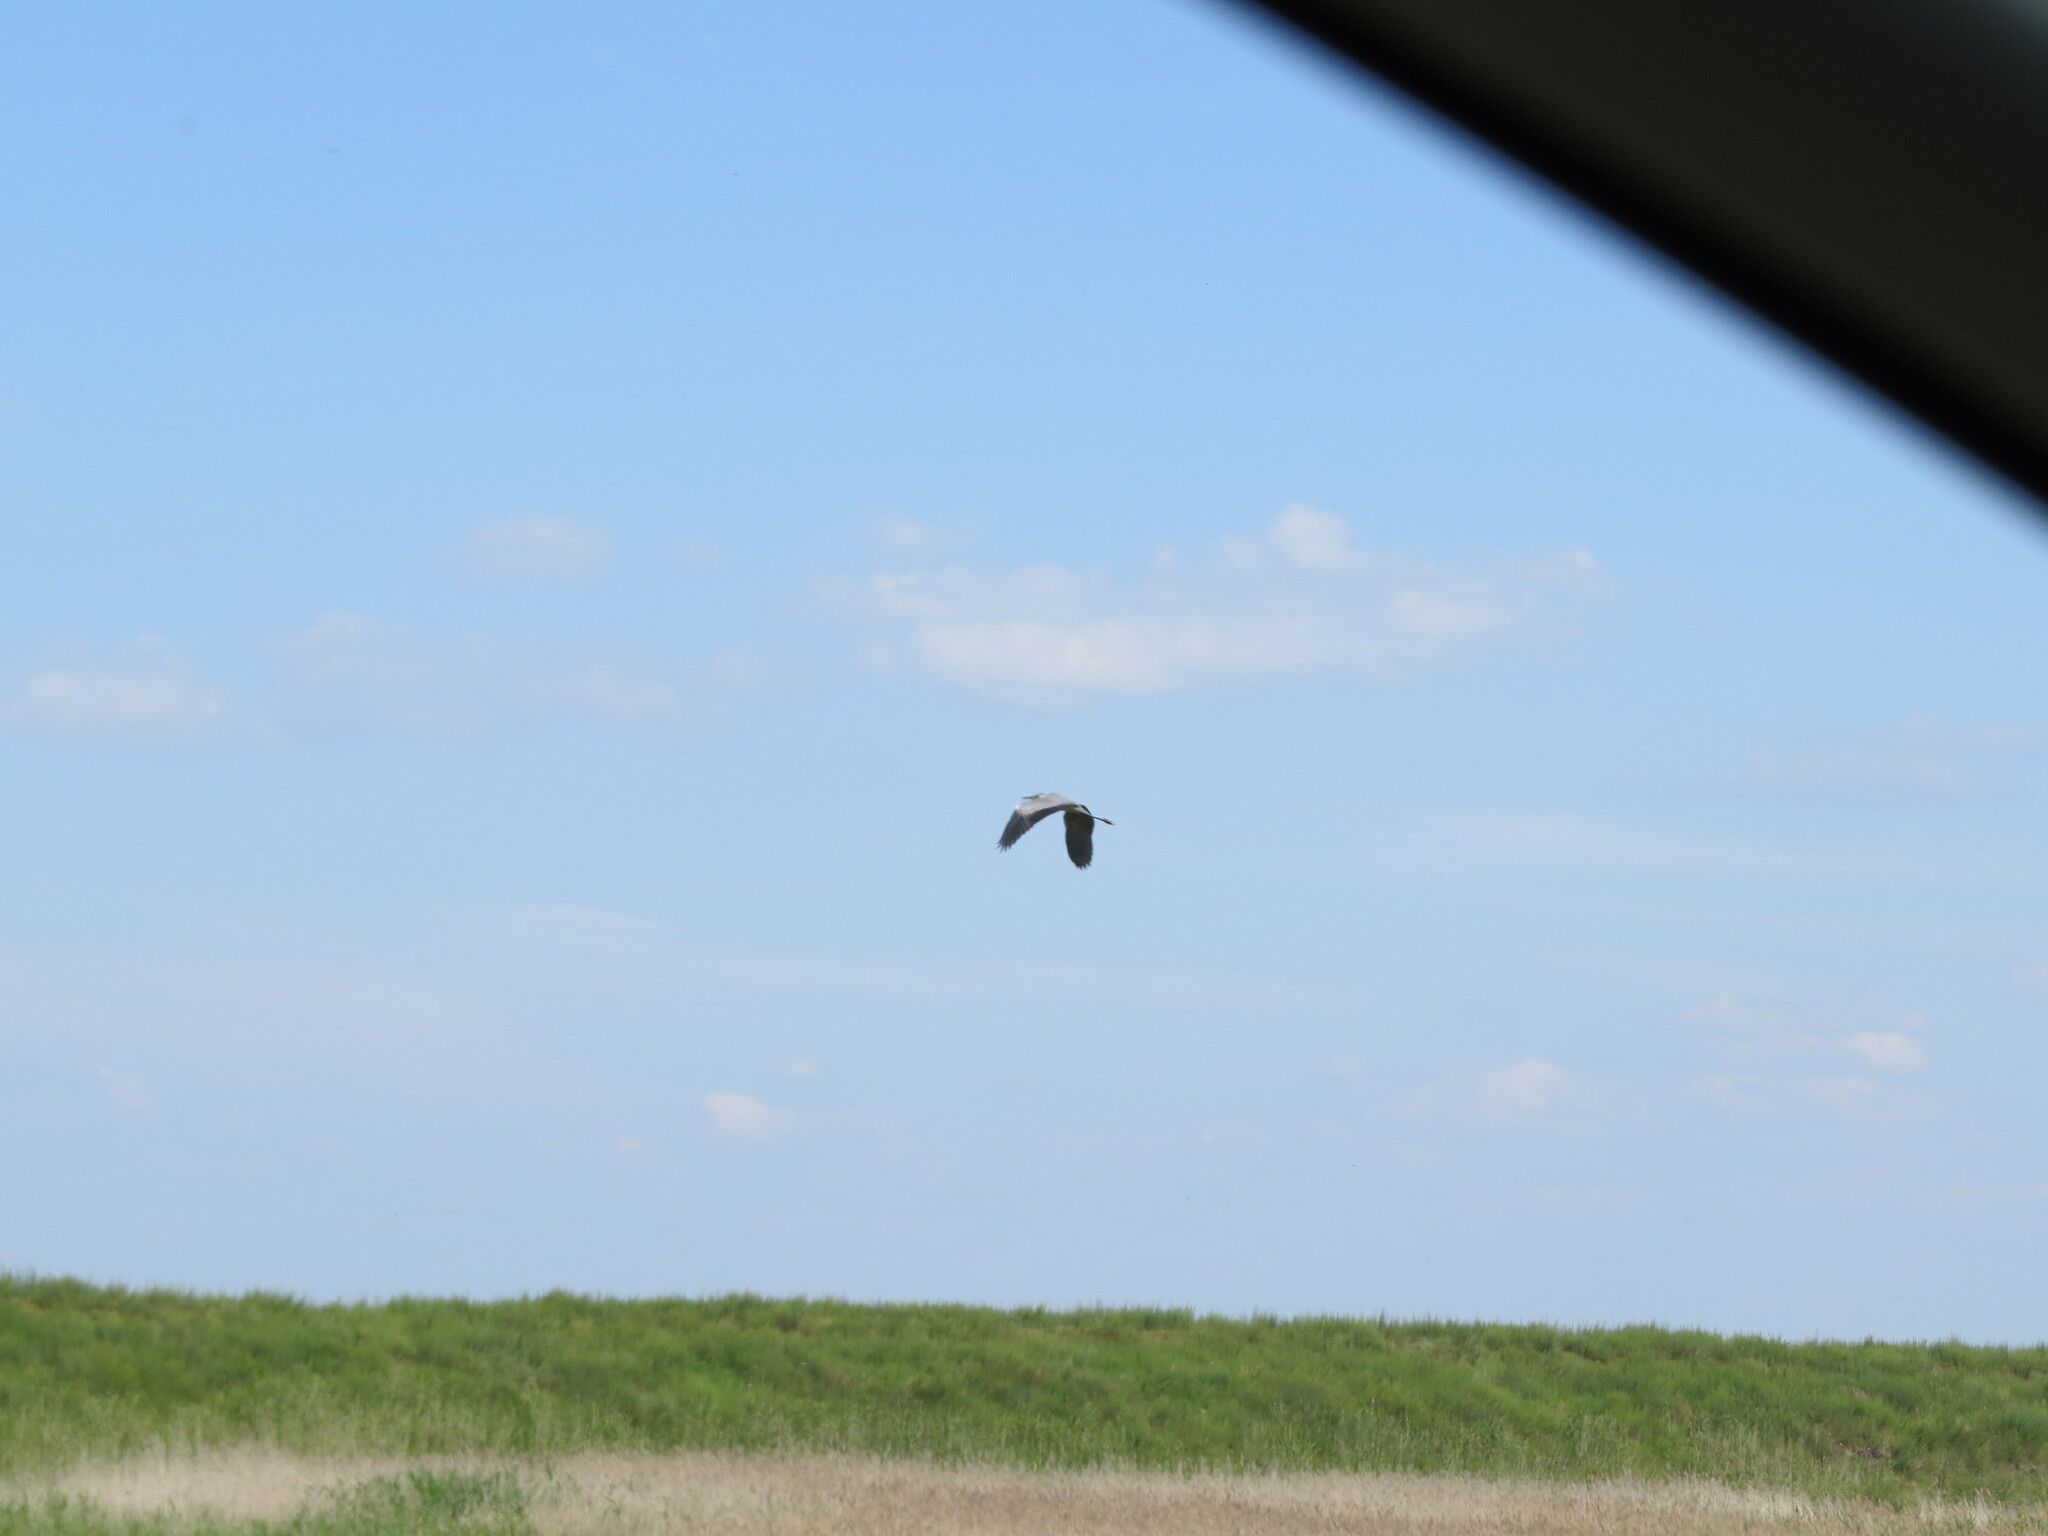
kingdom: Animalia
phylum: Chordata
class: Aves
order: Pelecaniformes
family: Ardeidae
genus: Ardea
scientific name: Ardea cinerea
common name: Grey heron
